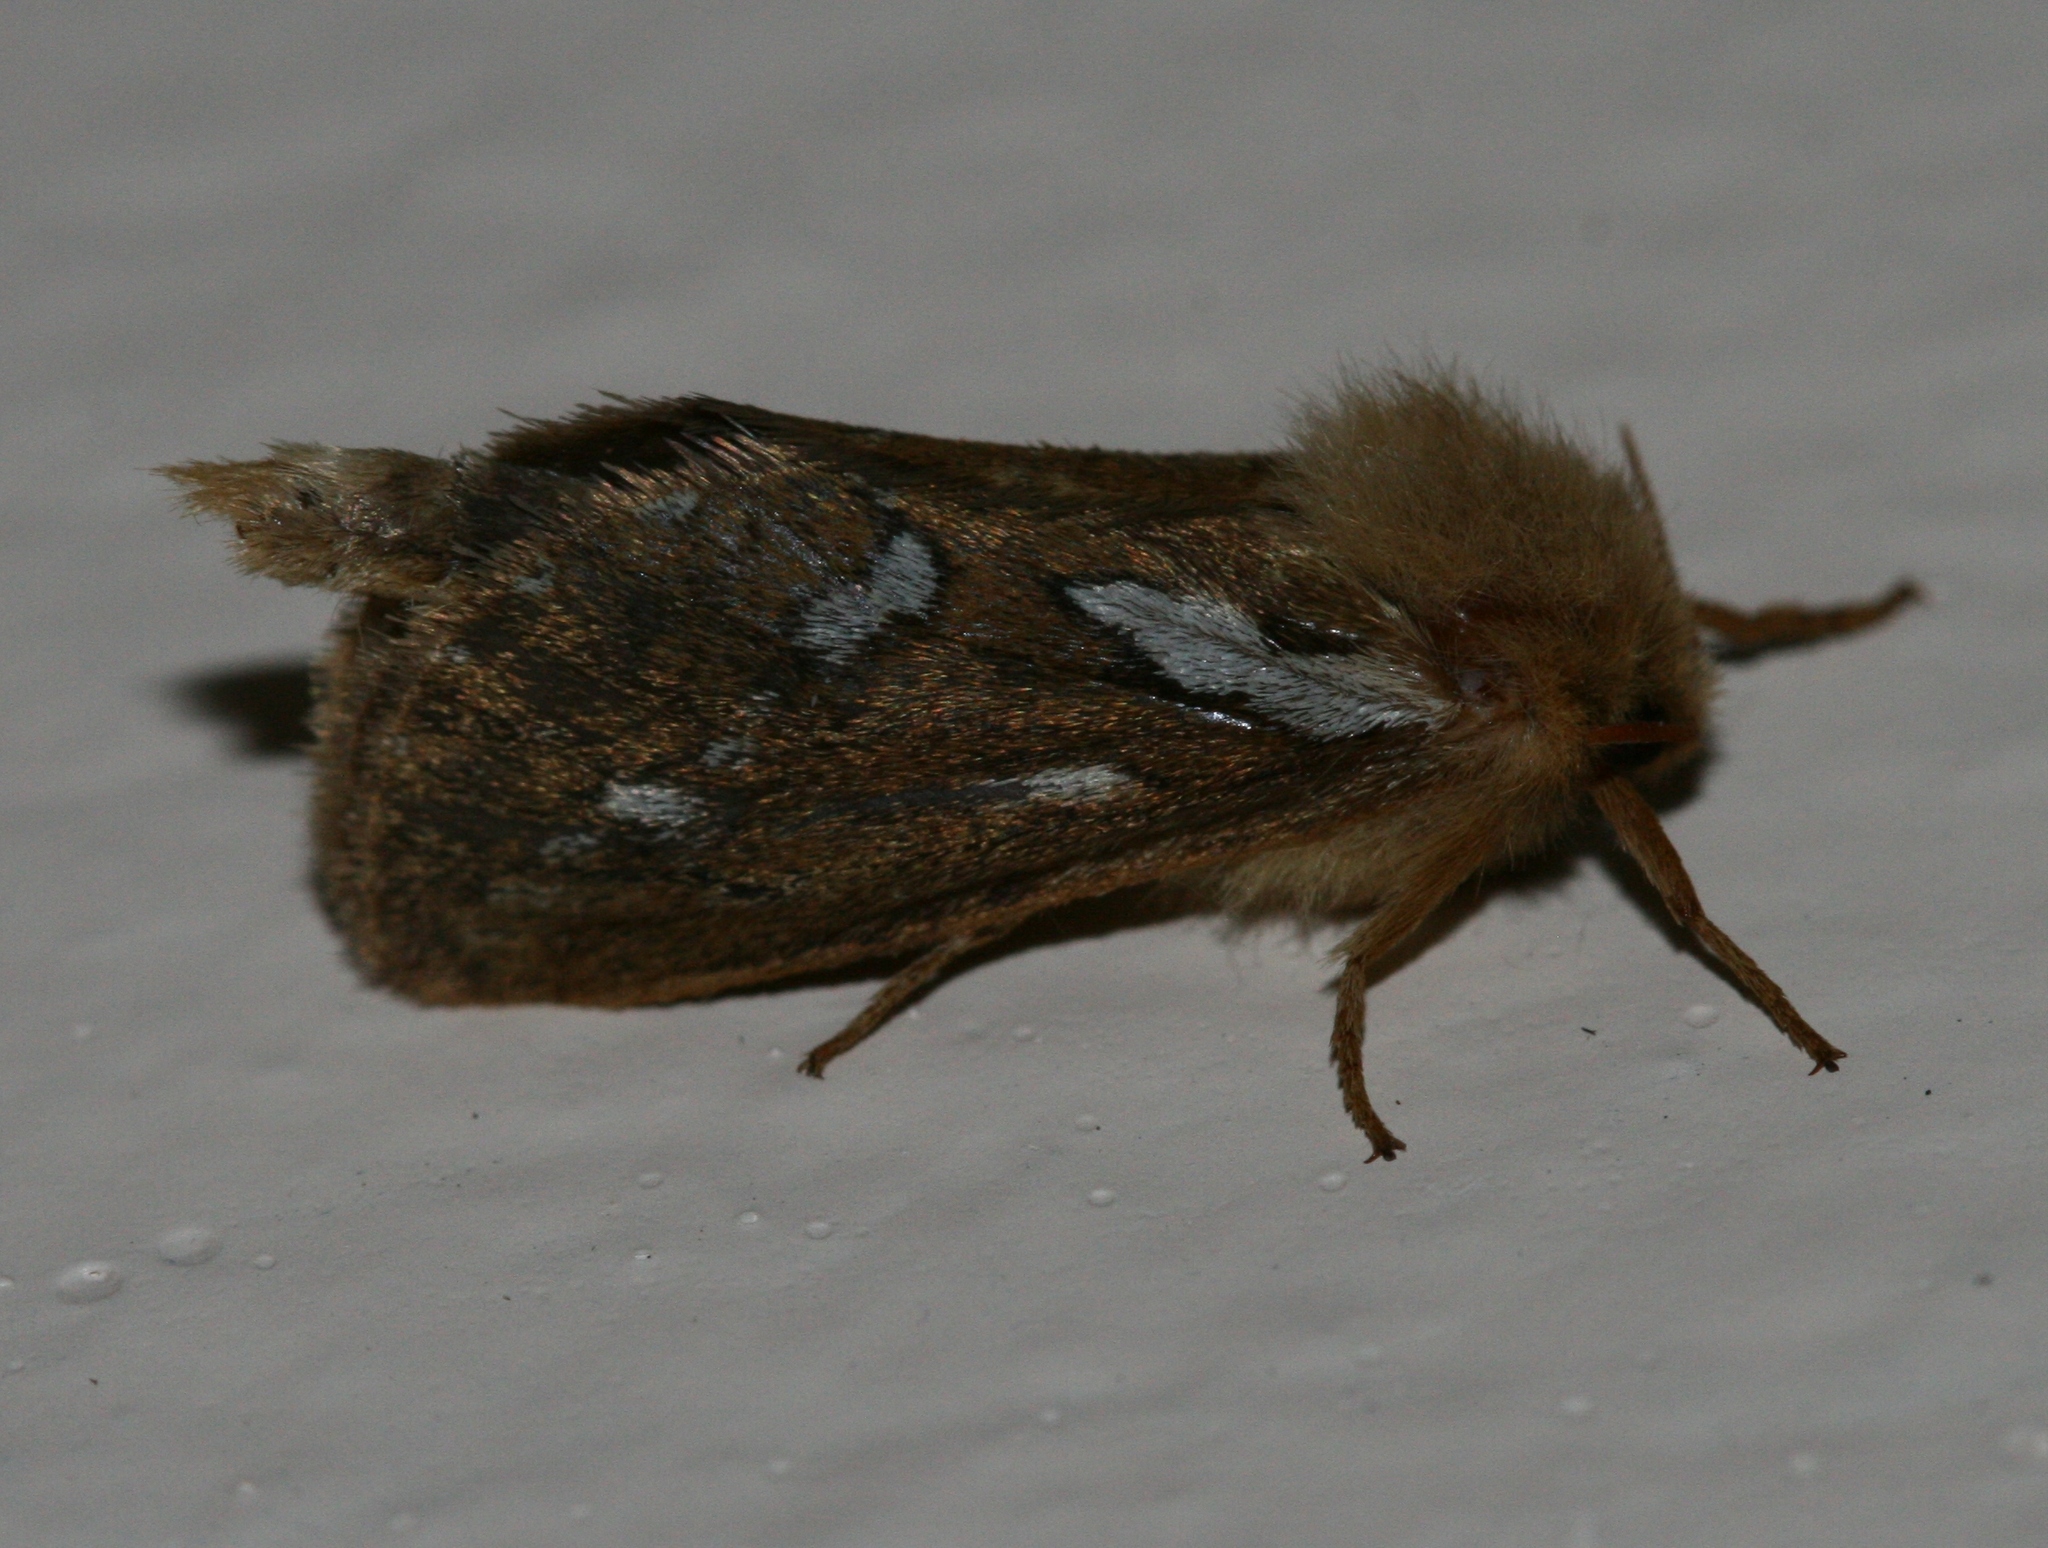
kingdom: Animalia
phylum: Arthropoda
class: Insecta
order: Lepidoptera
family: Hepialidae
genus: Korscheltellus
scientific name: Korscheltellus lupulina
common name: Common swift
